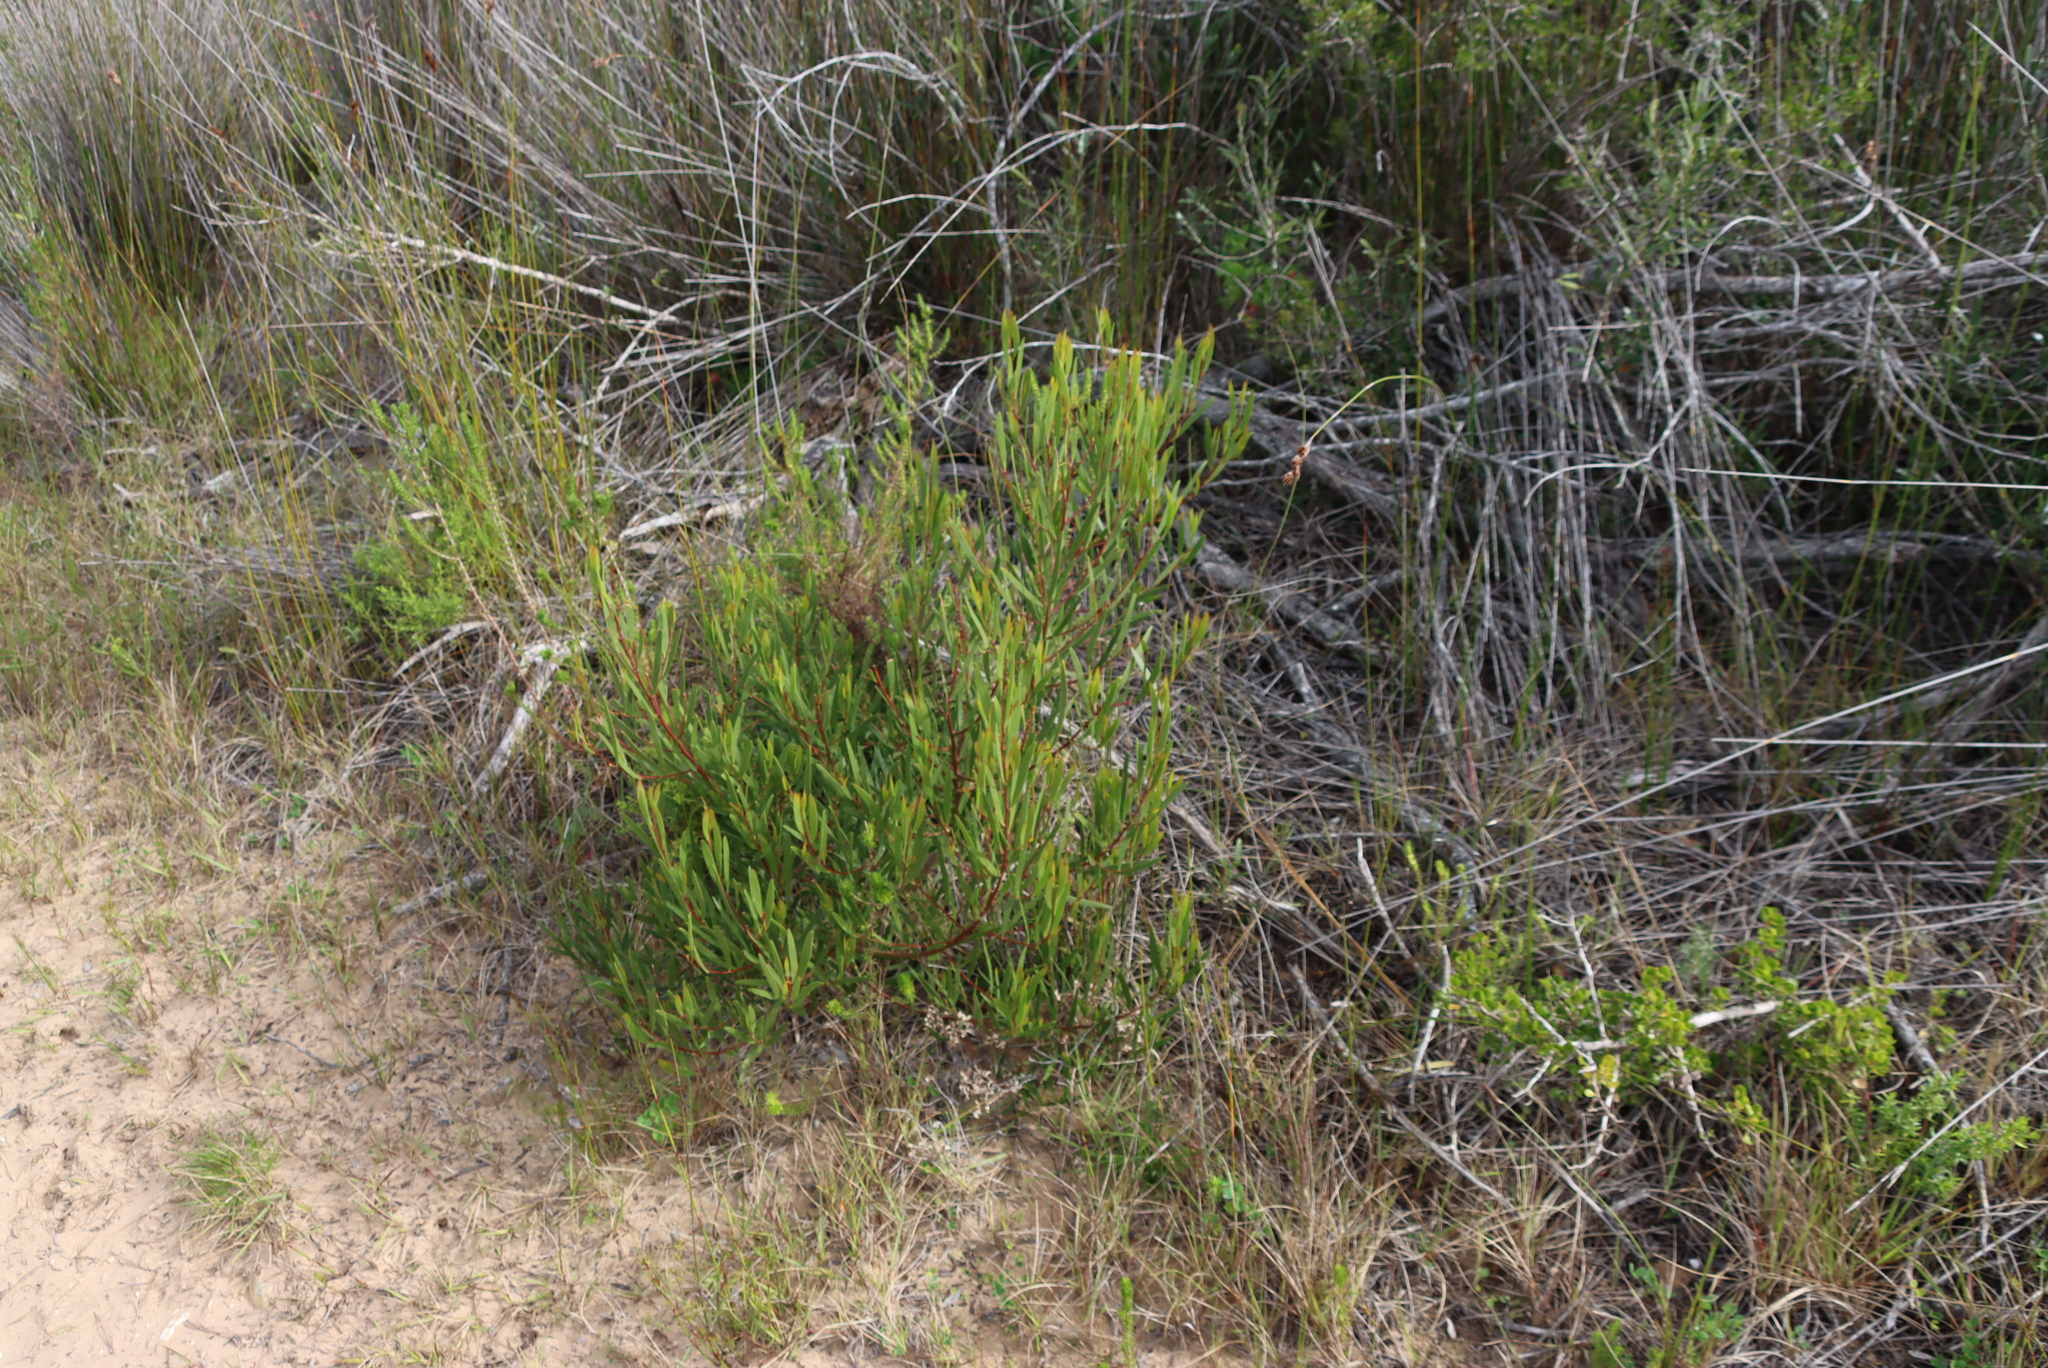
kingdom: Plantae
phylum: Tracheophyta
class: Magnoliopsida
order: Fabales
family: Fabaceae
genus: Acacia
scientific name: Acacia cyclops
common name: Coastal wattle
